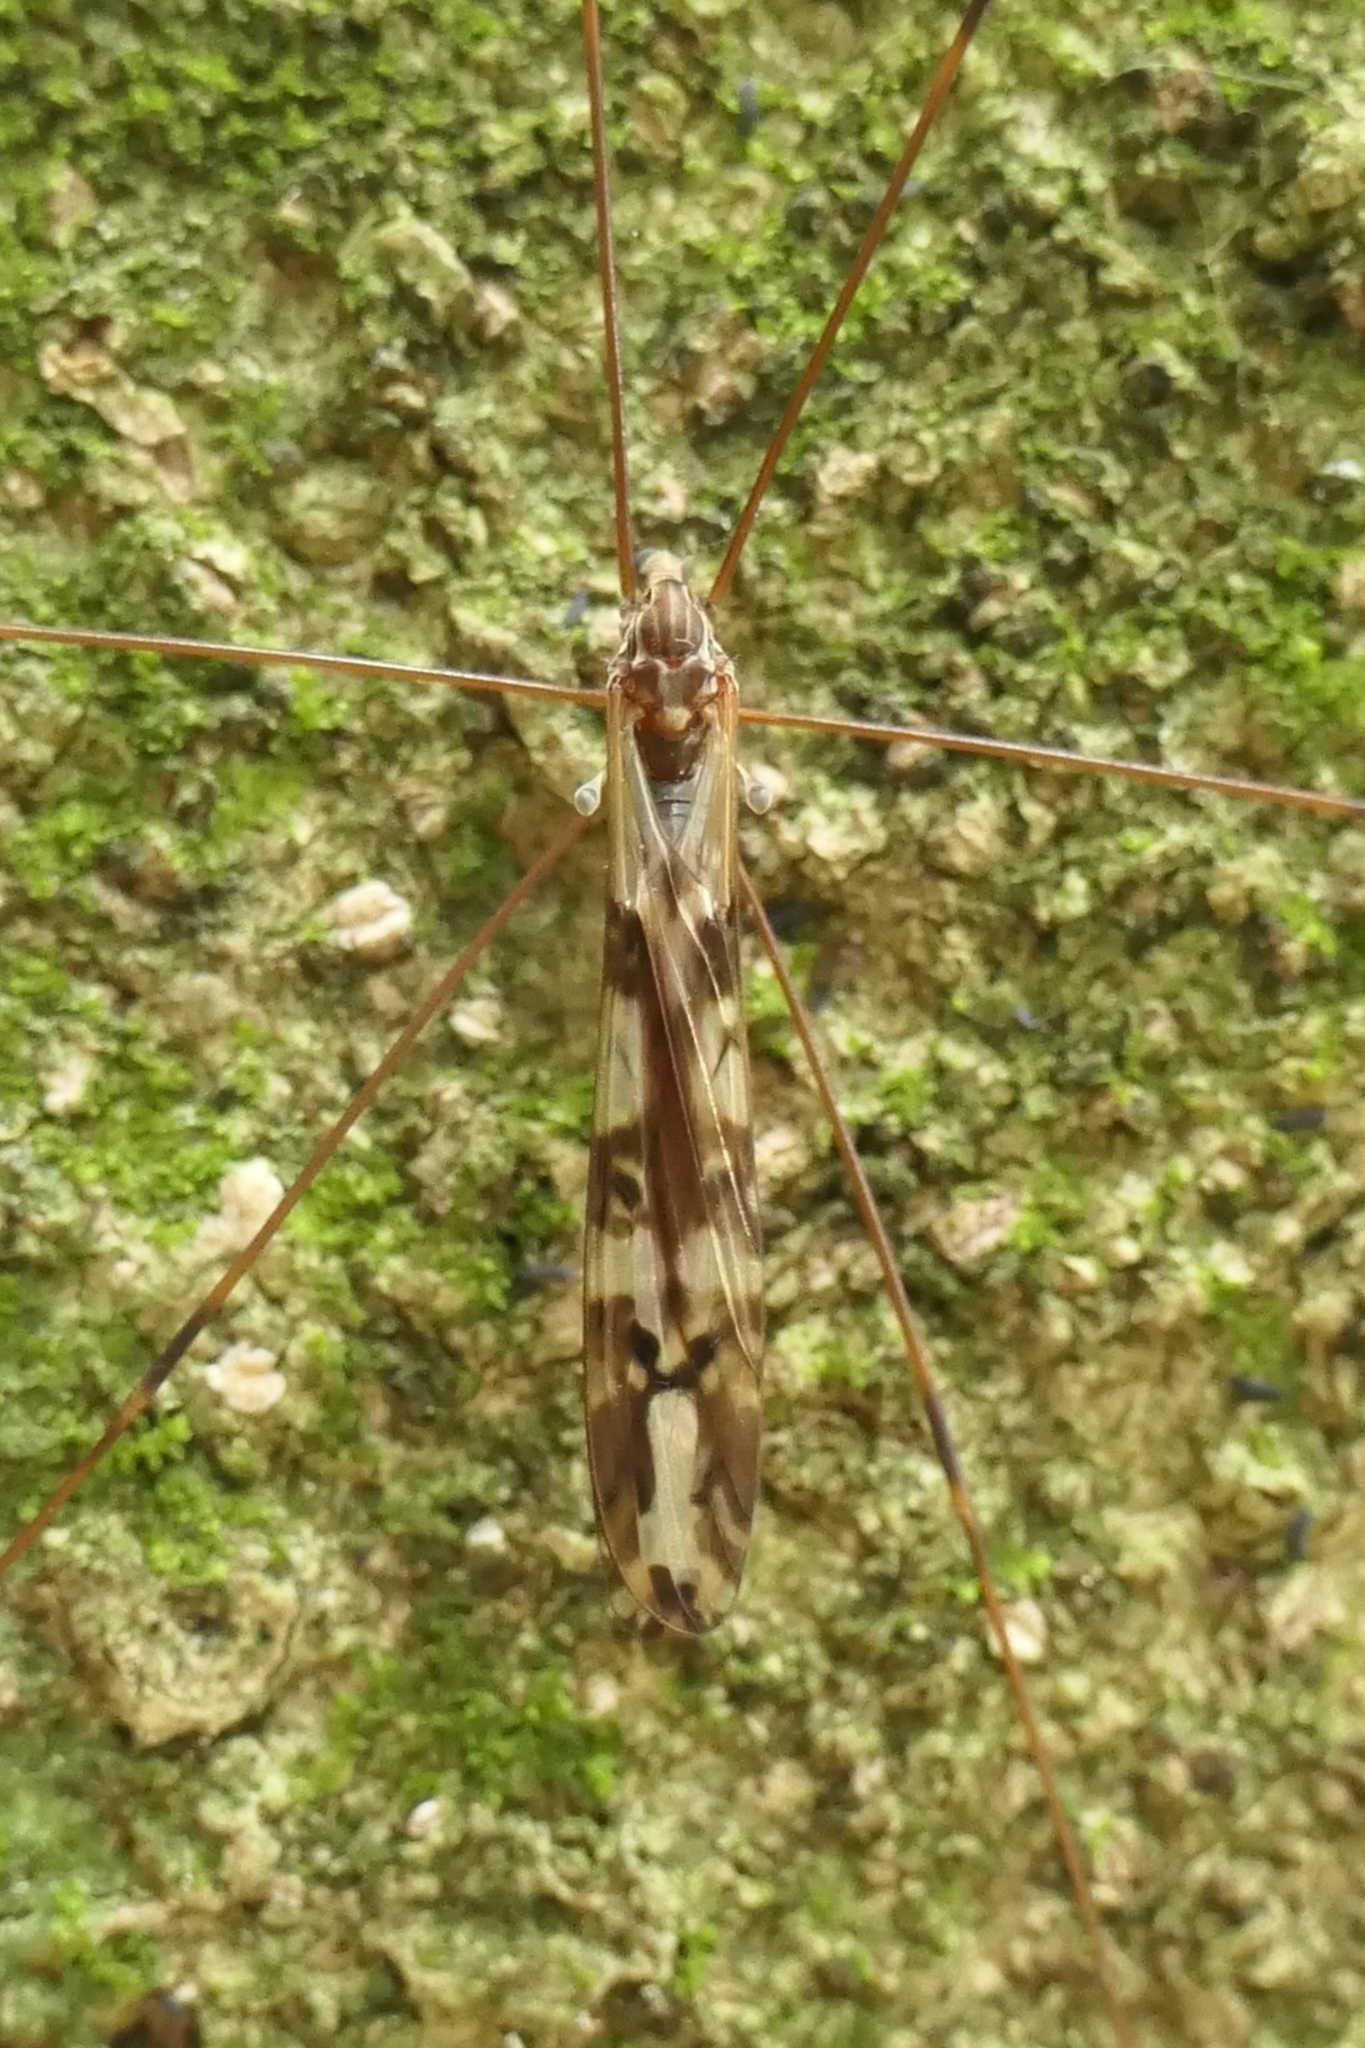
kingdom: Animalia
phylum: Arthropoda
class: Insecta
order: Diptera
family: Limoniidae
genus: Discobola
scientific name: Discobola dohrni
